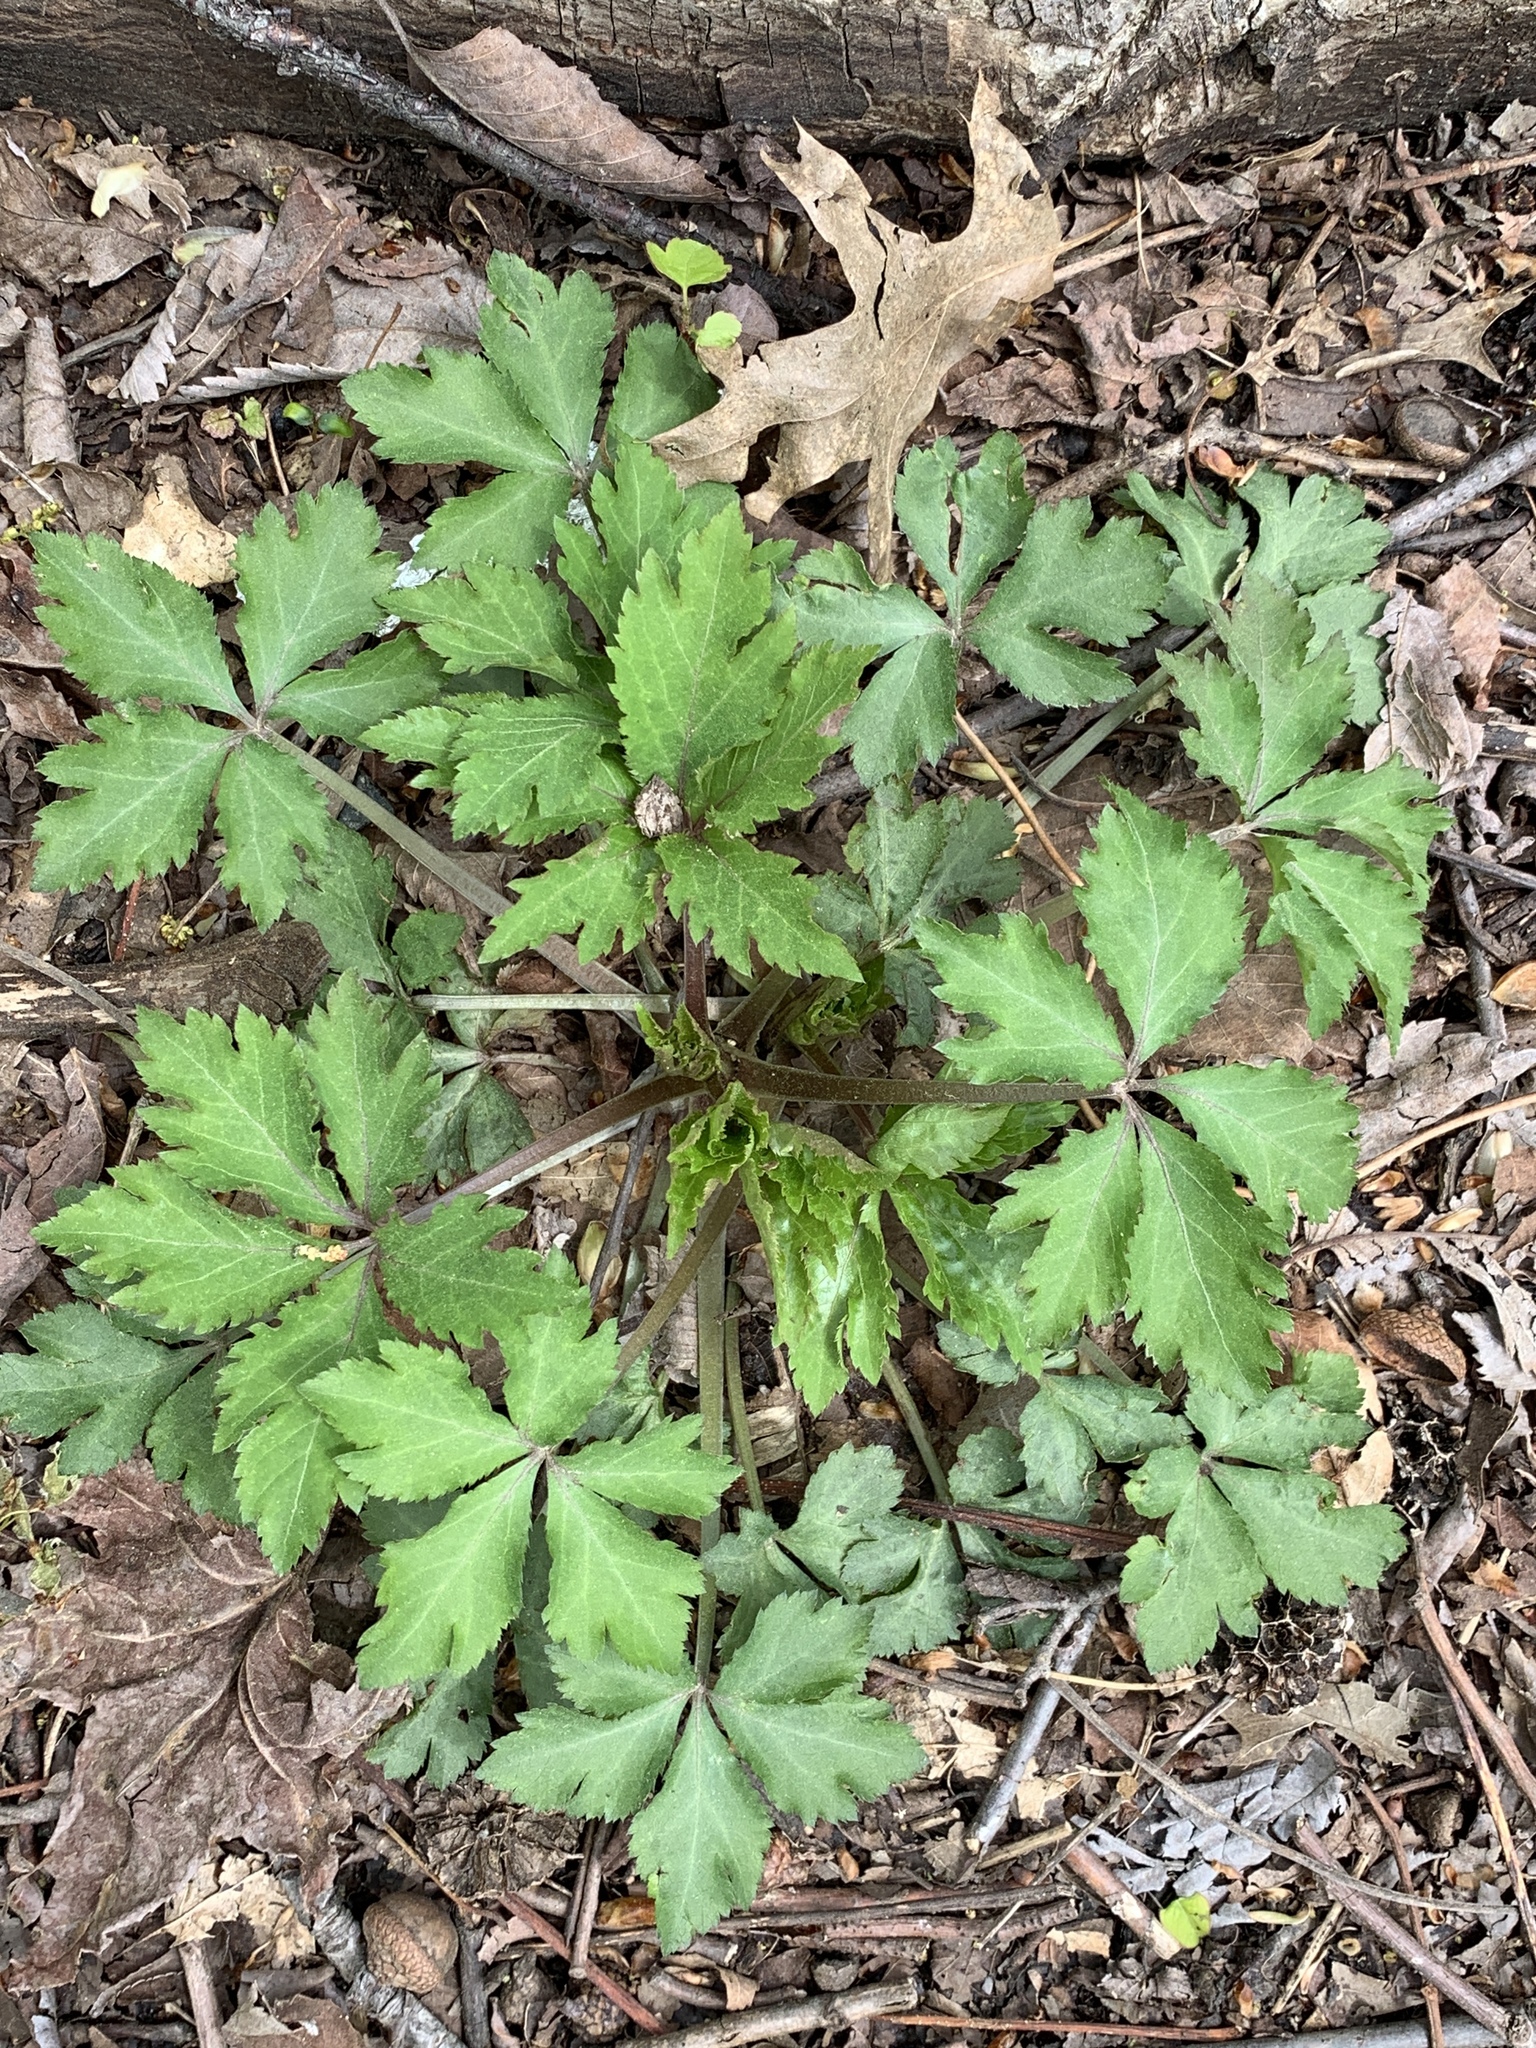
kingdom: Plantae
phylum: Tracheophyta
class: Magnoliopsida
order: Ranunculales
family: Ranunculaceae
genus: Ranunculus
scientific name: Ranunculus recurvatus
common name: Blisterwort
